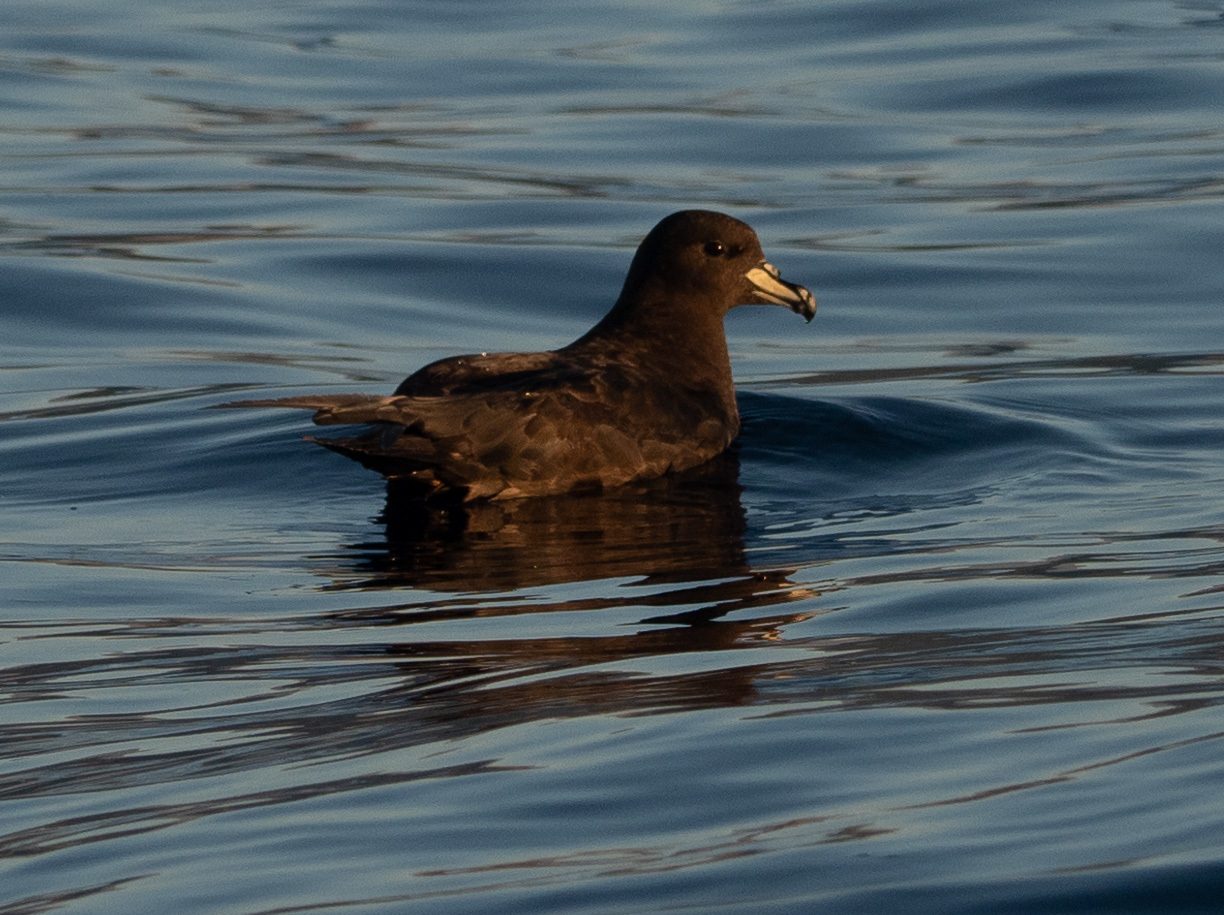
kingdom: Animalia
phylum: Chordata
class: Aves
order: Procellariiformes
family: Procellariidae
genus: Procellaria
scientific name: Procellaria westlandica
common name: Westland petrel
